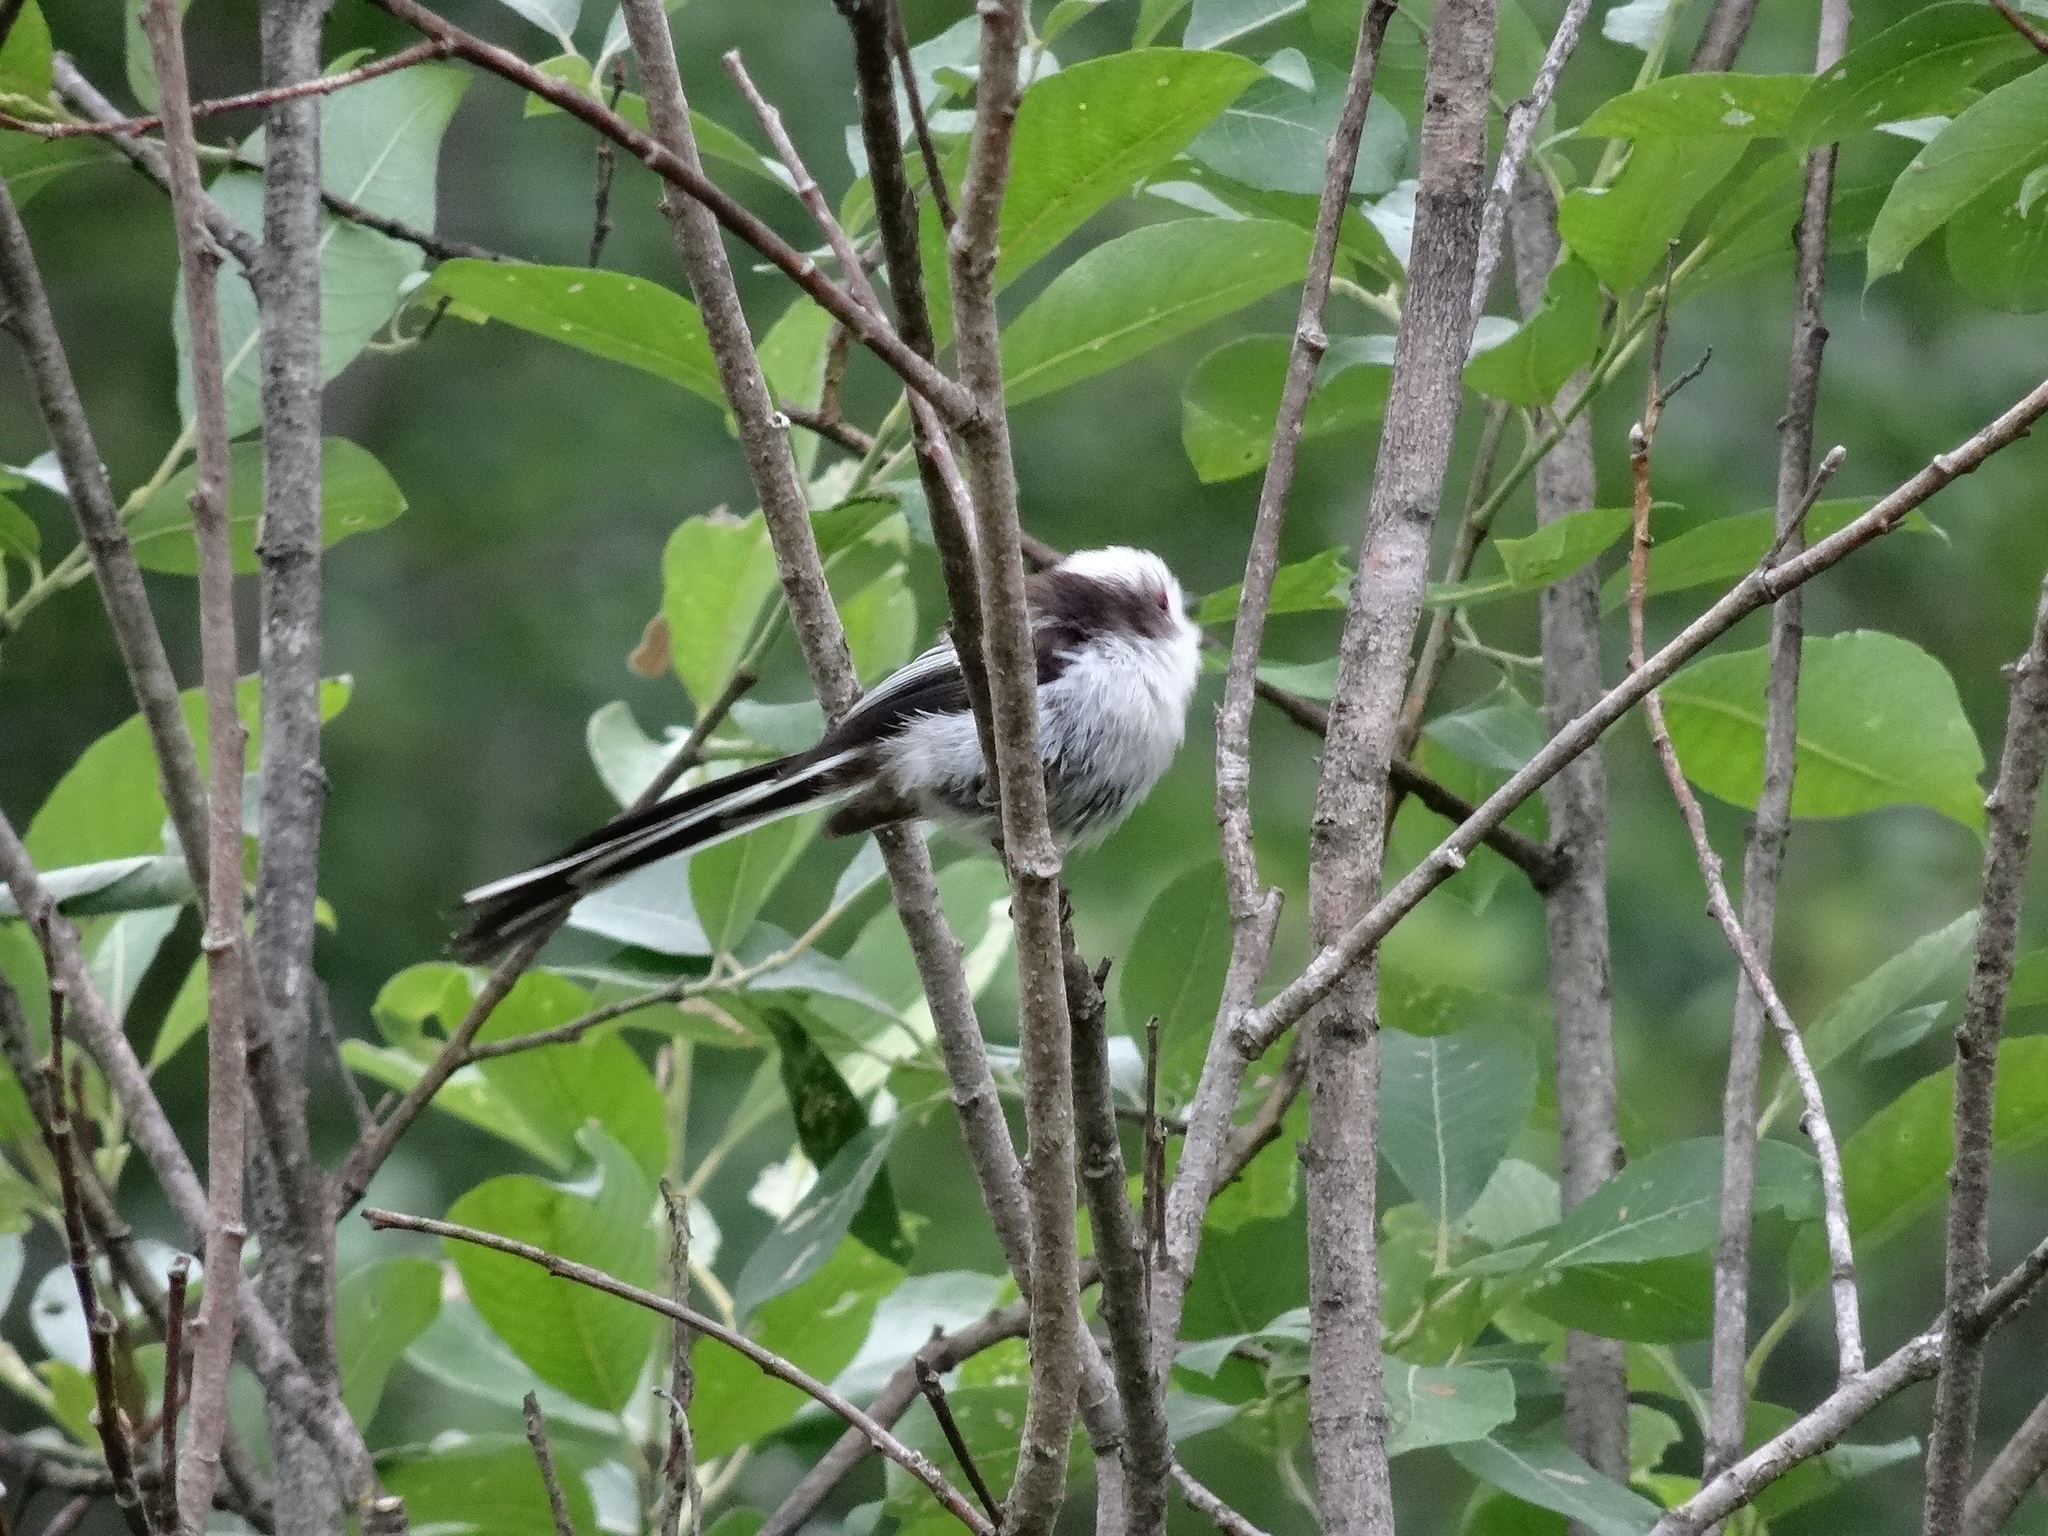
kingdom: Animalia
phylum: Chordata
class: Aves
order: Passeriformes
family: Aegithalidae
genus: Aegithalos
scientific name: Aegithalos caudatus
